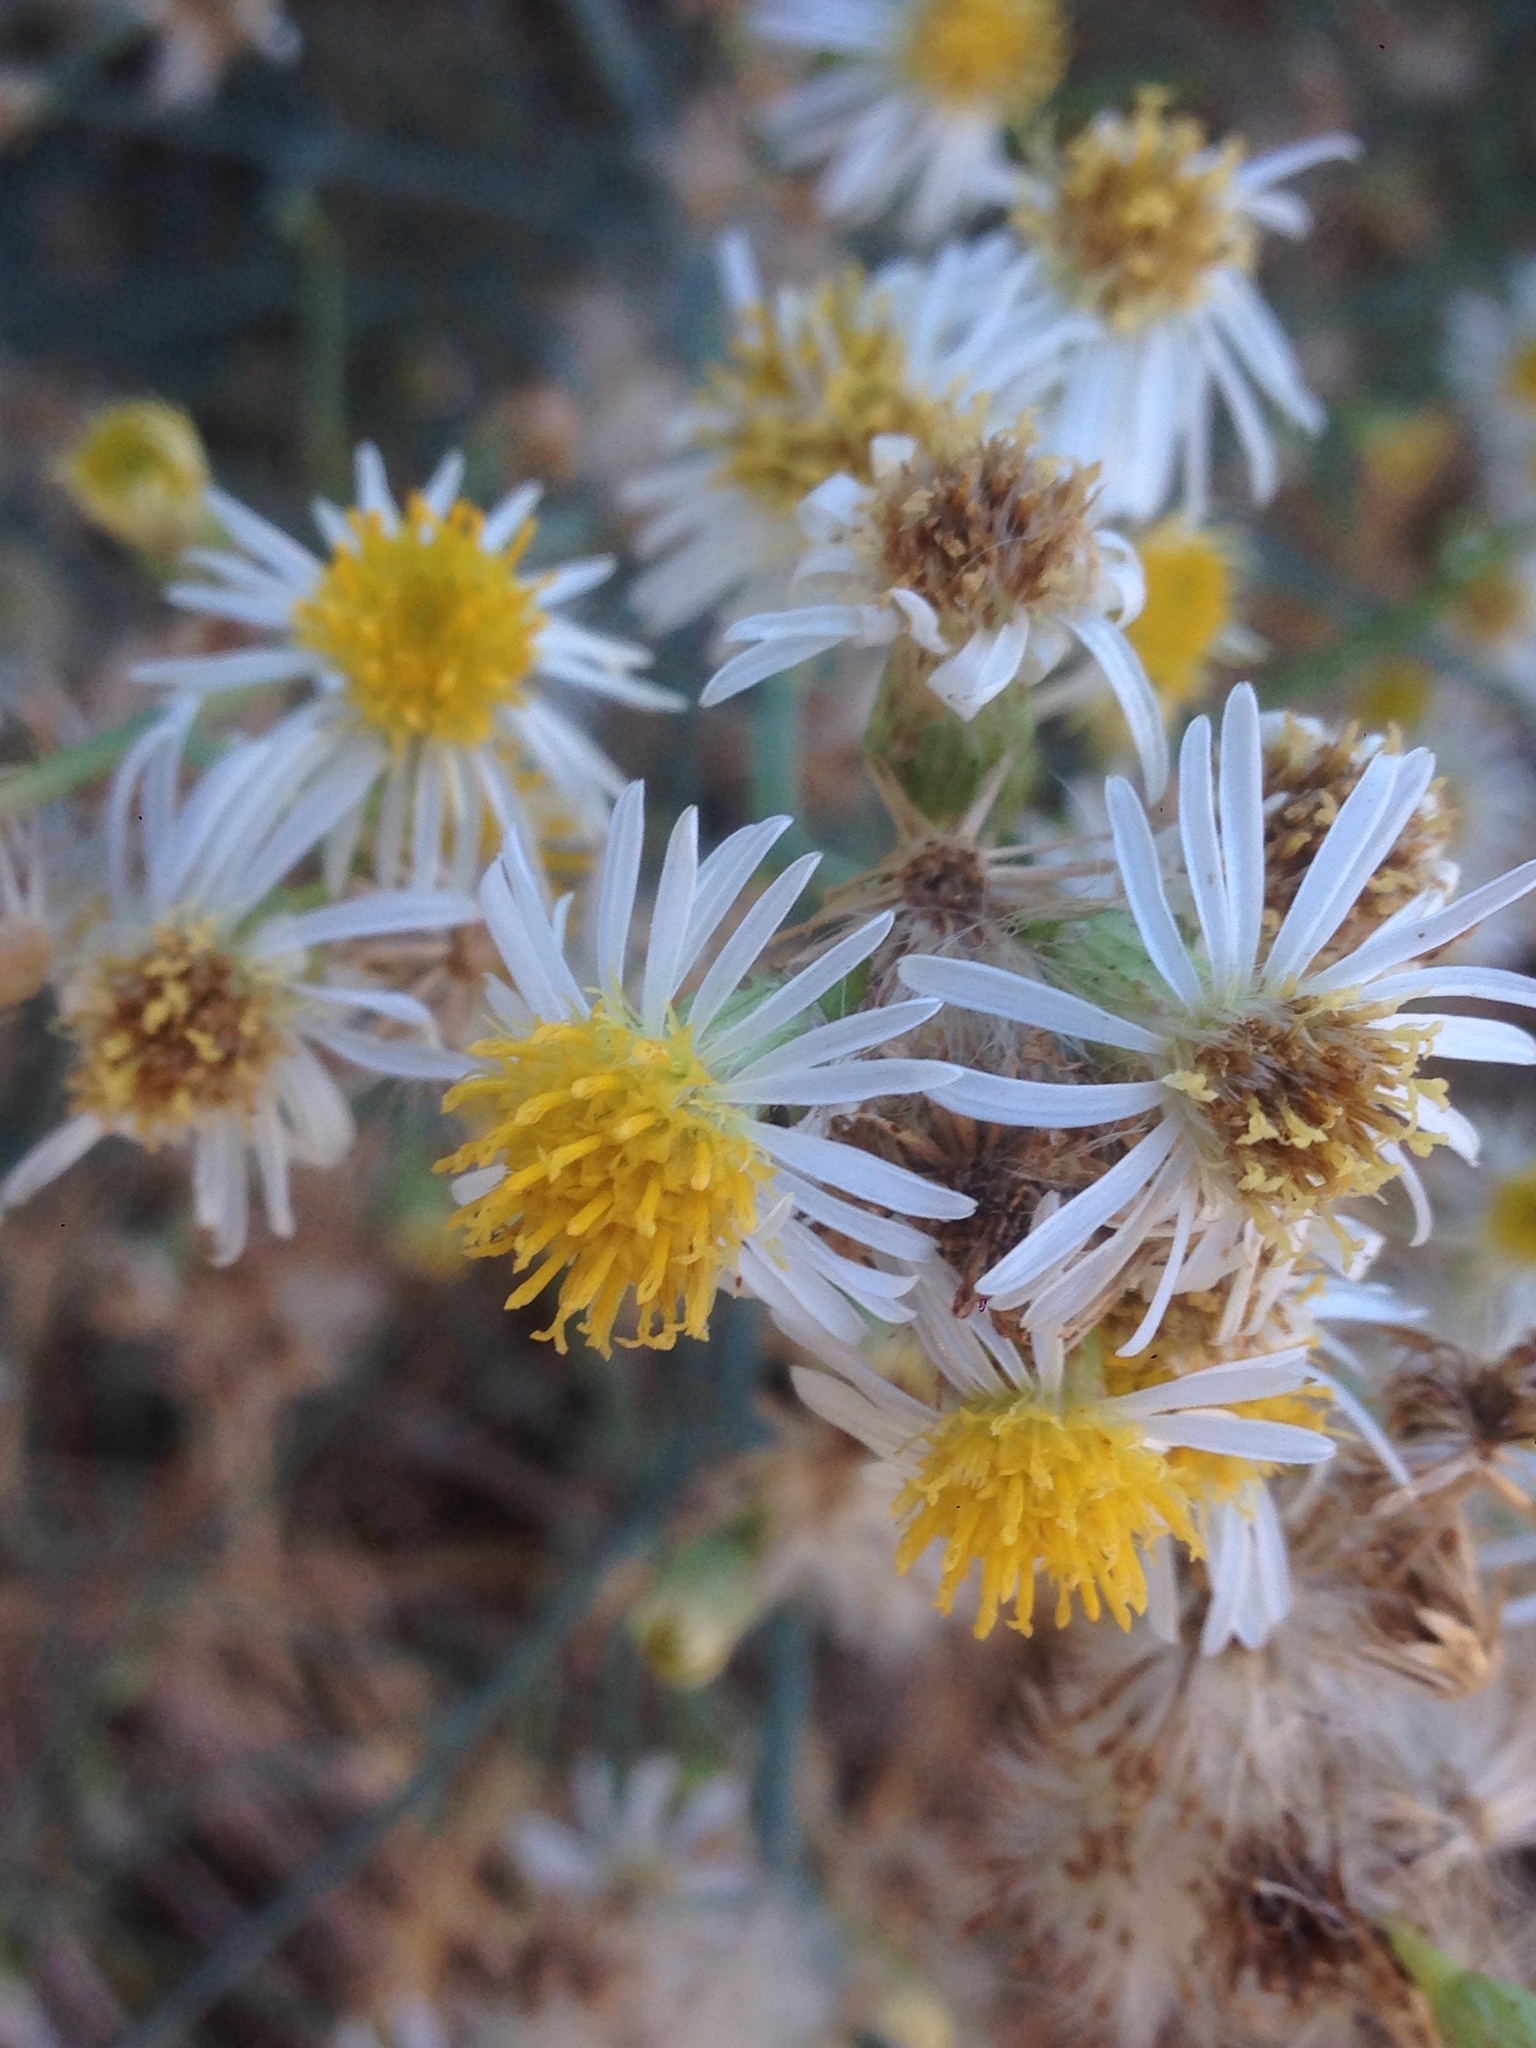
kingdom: Plantae
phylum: Tracheophyta
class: Magnoliopsida
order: Asterales
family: Asteraceae
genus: Chloracantha
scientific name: Chloracantha spinosa
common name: Mexican devilweed
